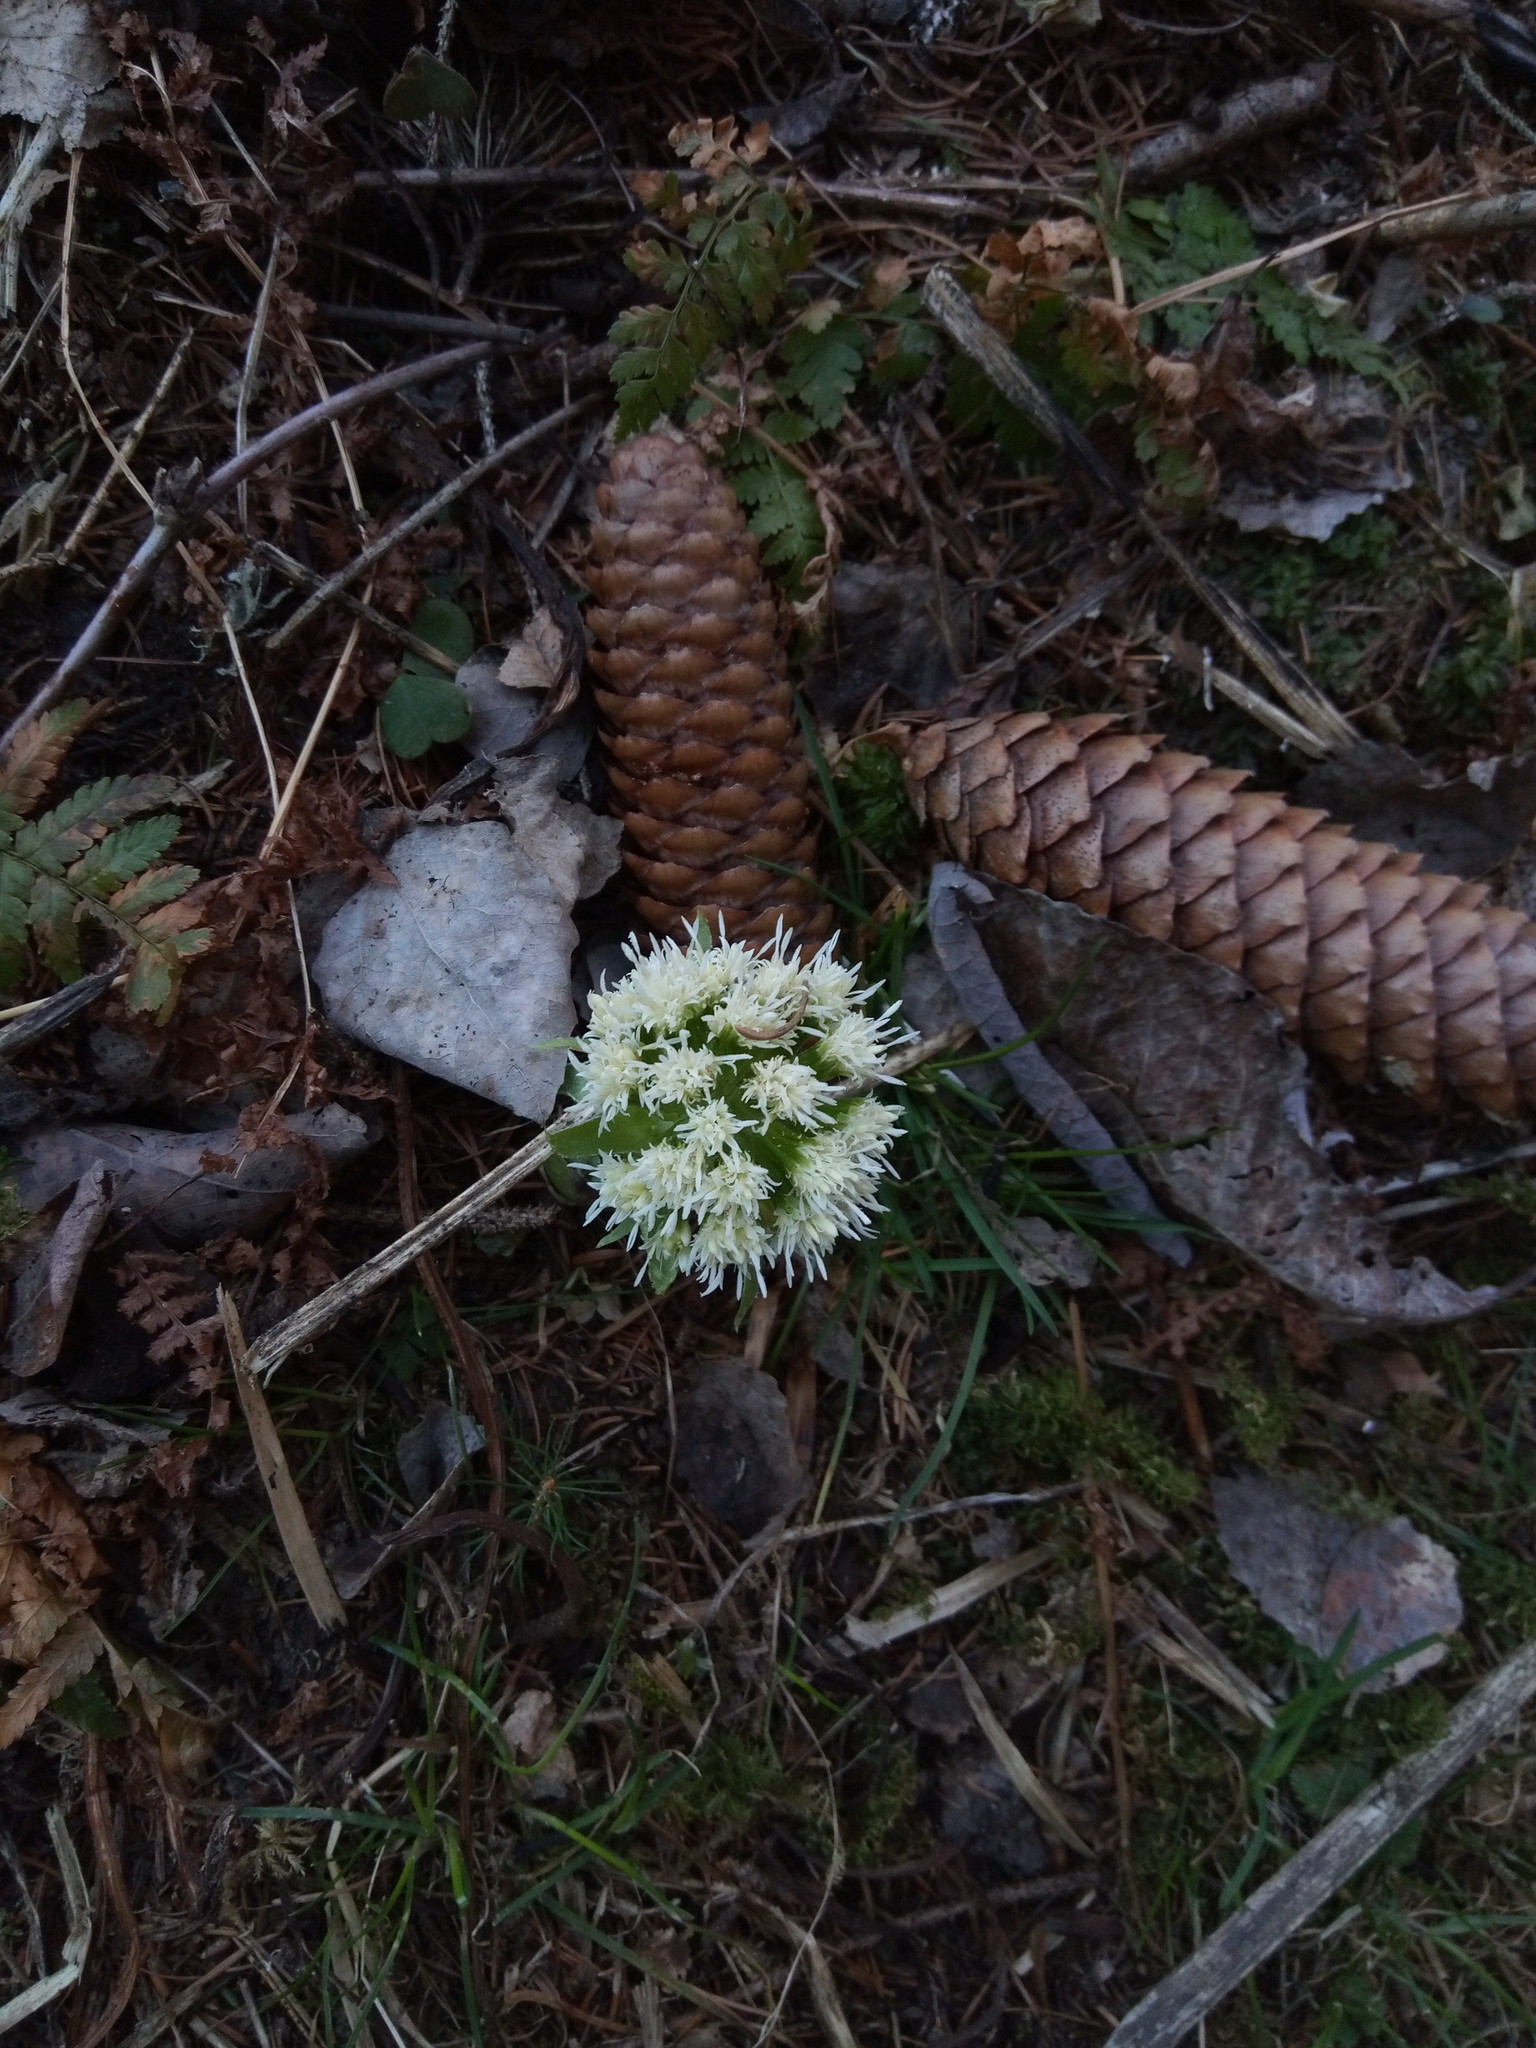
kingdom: Plantae
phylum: Tracheophyta
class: Magnoliopsida
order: Asterales
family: Asteraceae
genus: Petasites
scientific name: Petasites albus
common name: White butterbur
